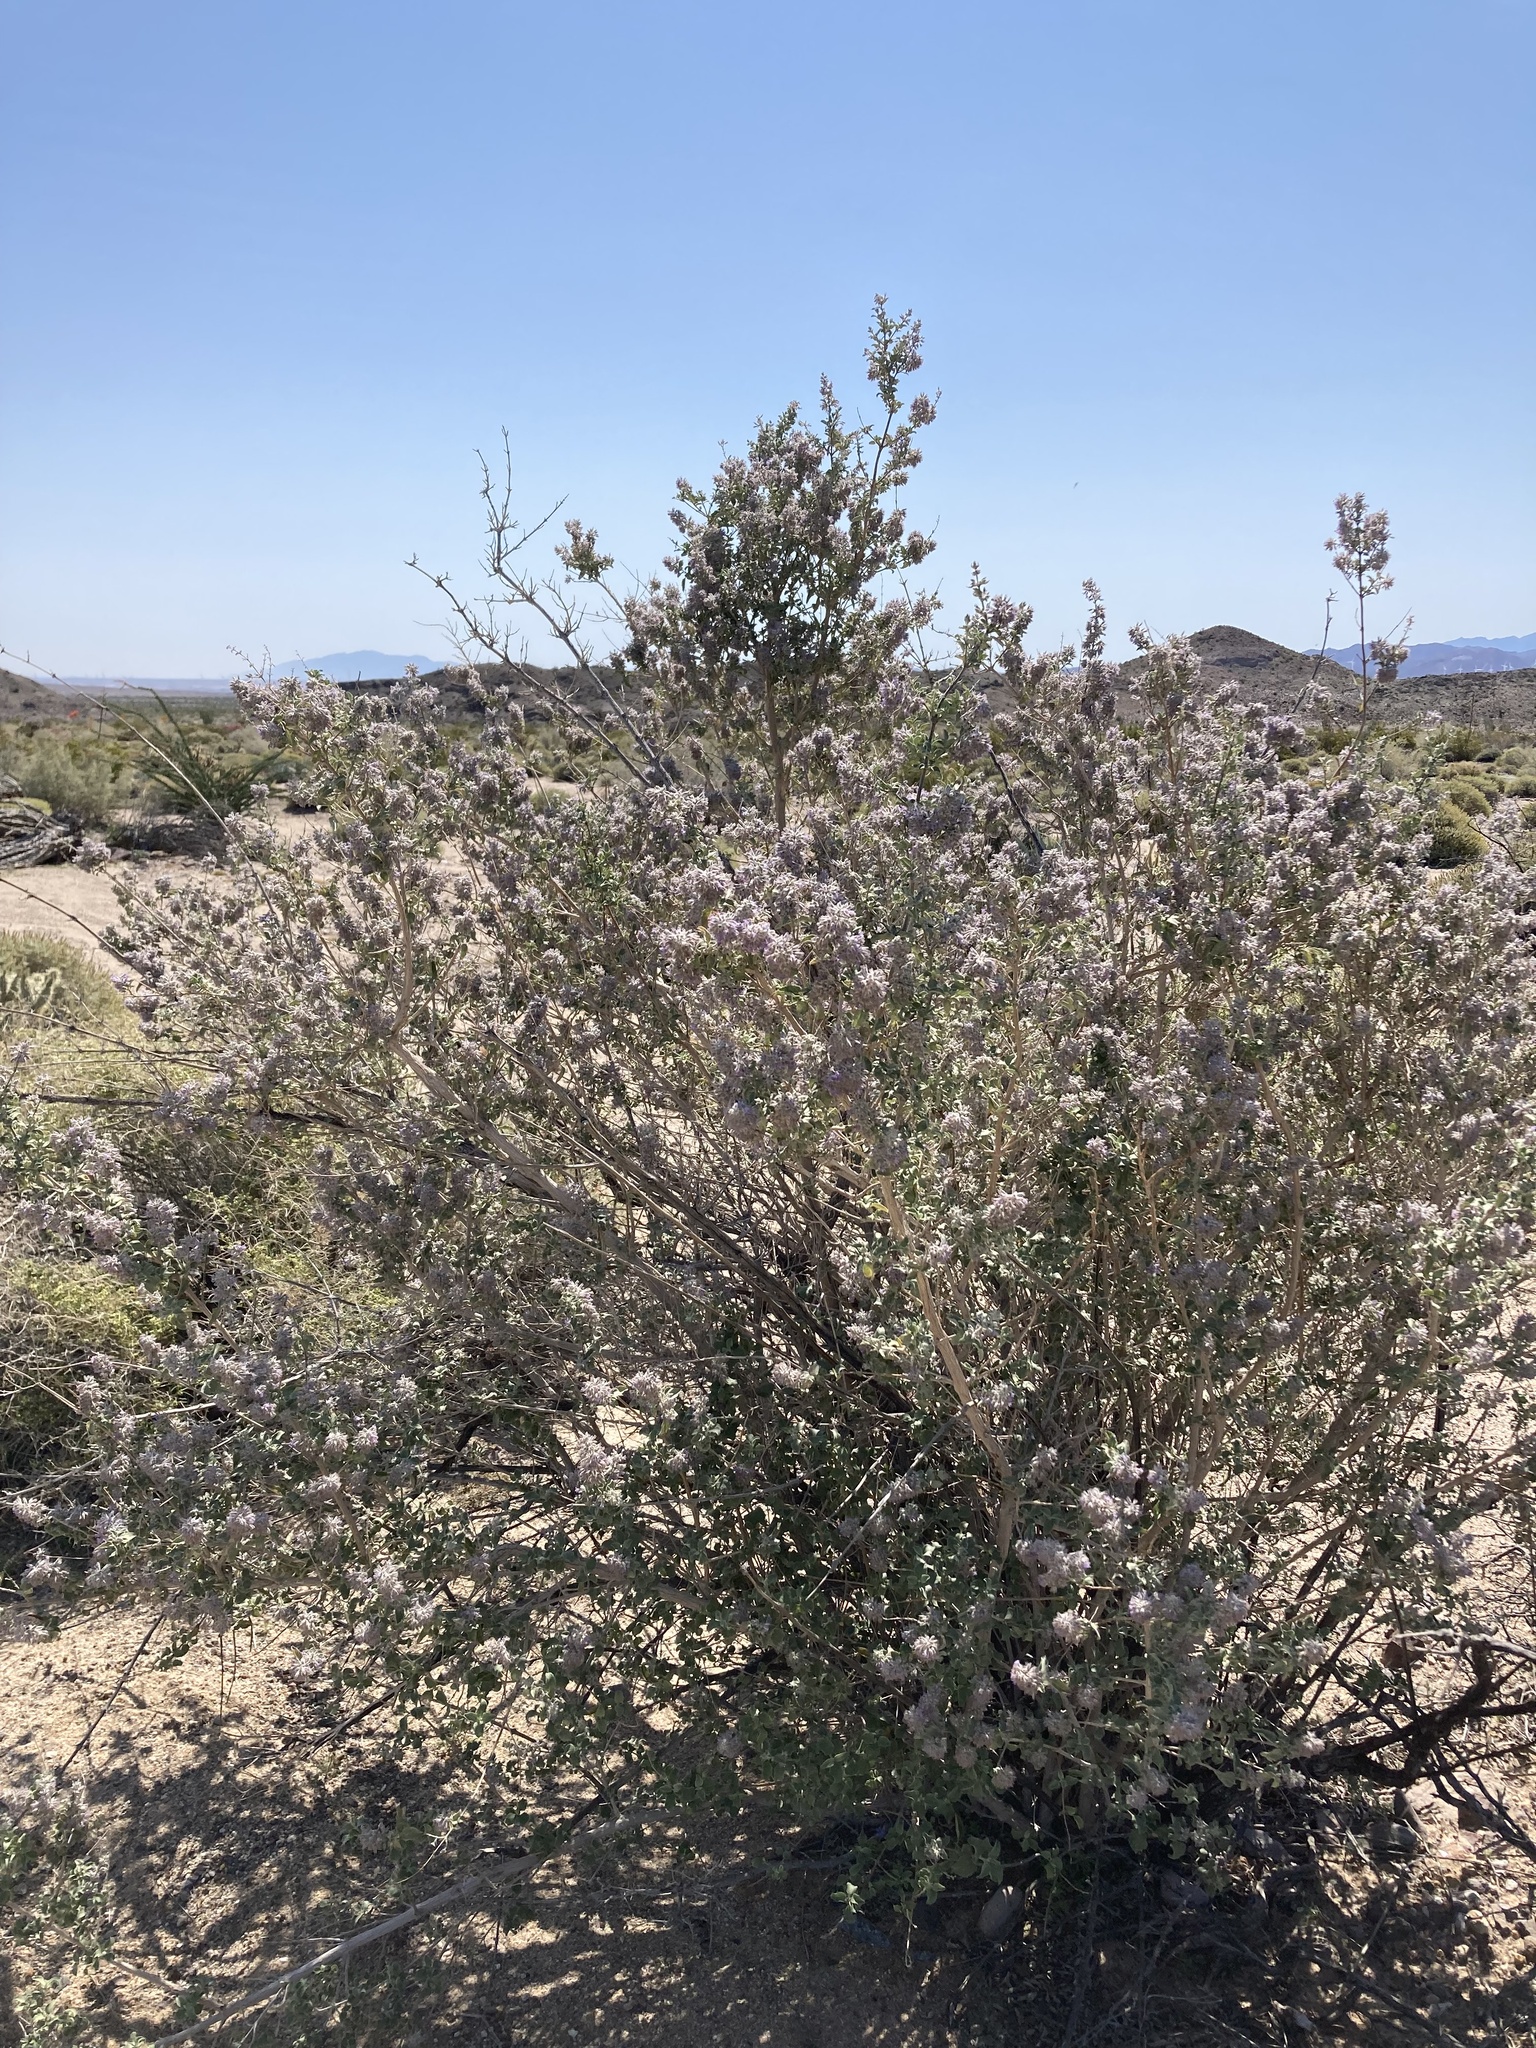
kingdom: Plantae
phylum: Tracheophyta
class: Magnoliopsida
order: Lamiales
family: Lamiaceae
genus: Condea
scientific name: Condea emoryi
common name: Chia
